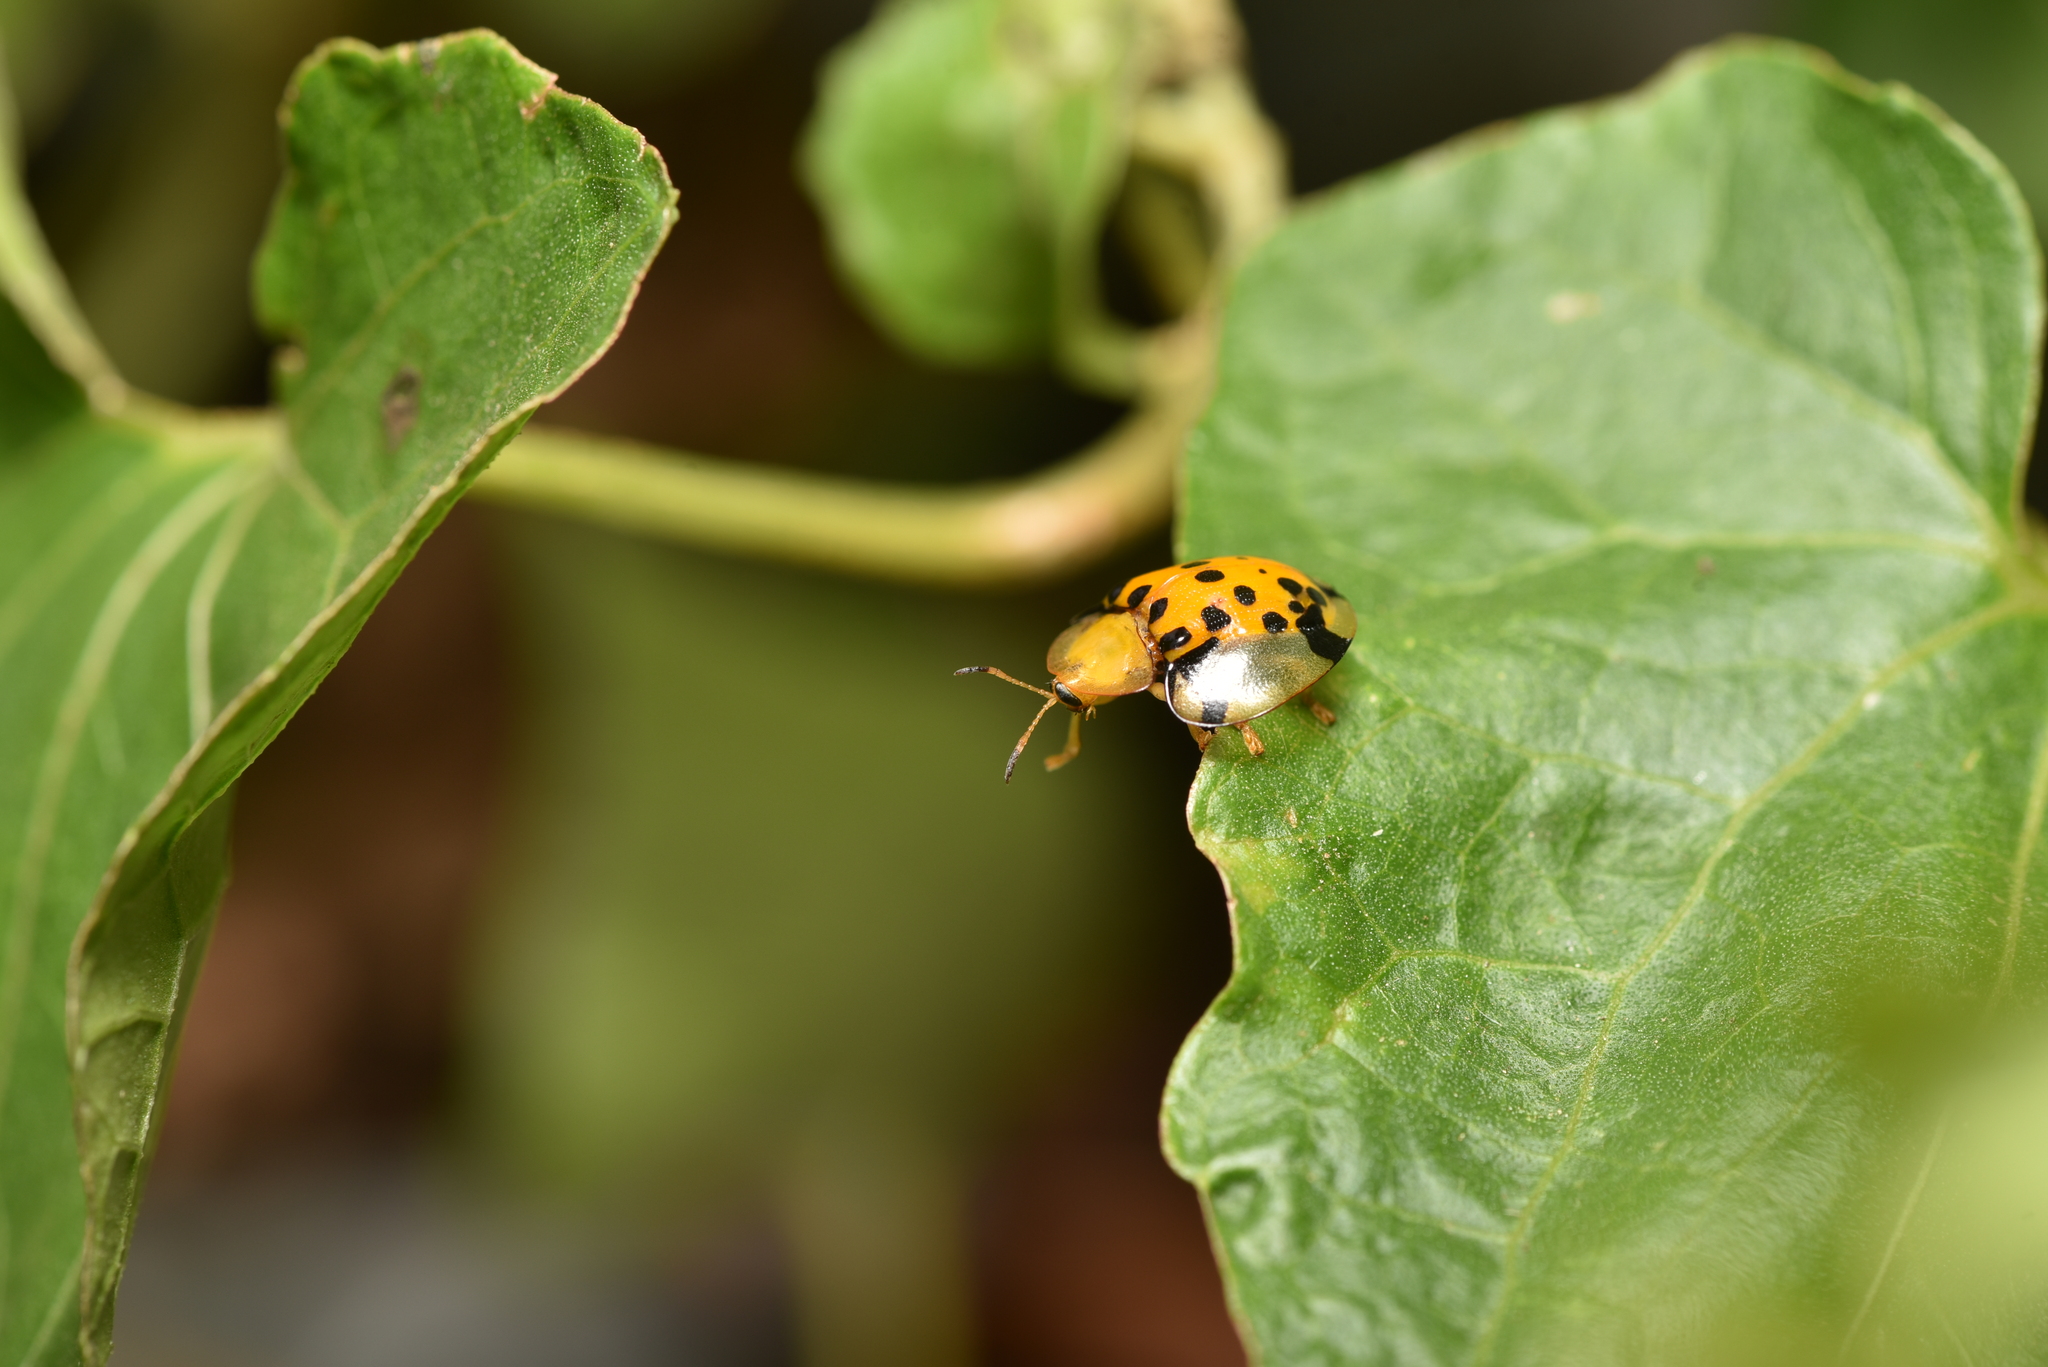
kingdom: Animalia
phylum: Arthropoda
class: Insecta
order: Coleoptera
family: Chrysomelidae
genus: Aspidimorpha
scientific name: Aspidimorpha miliaris
